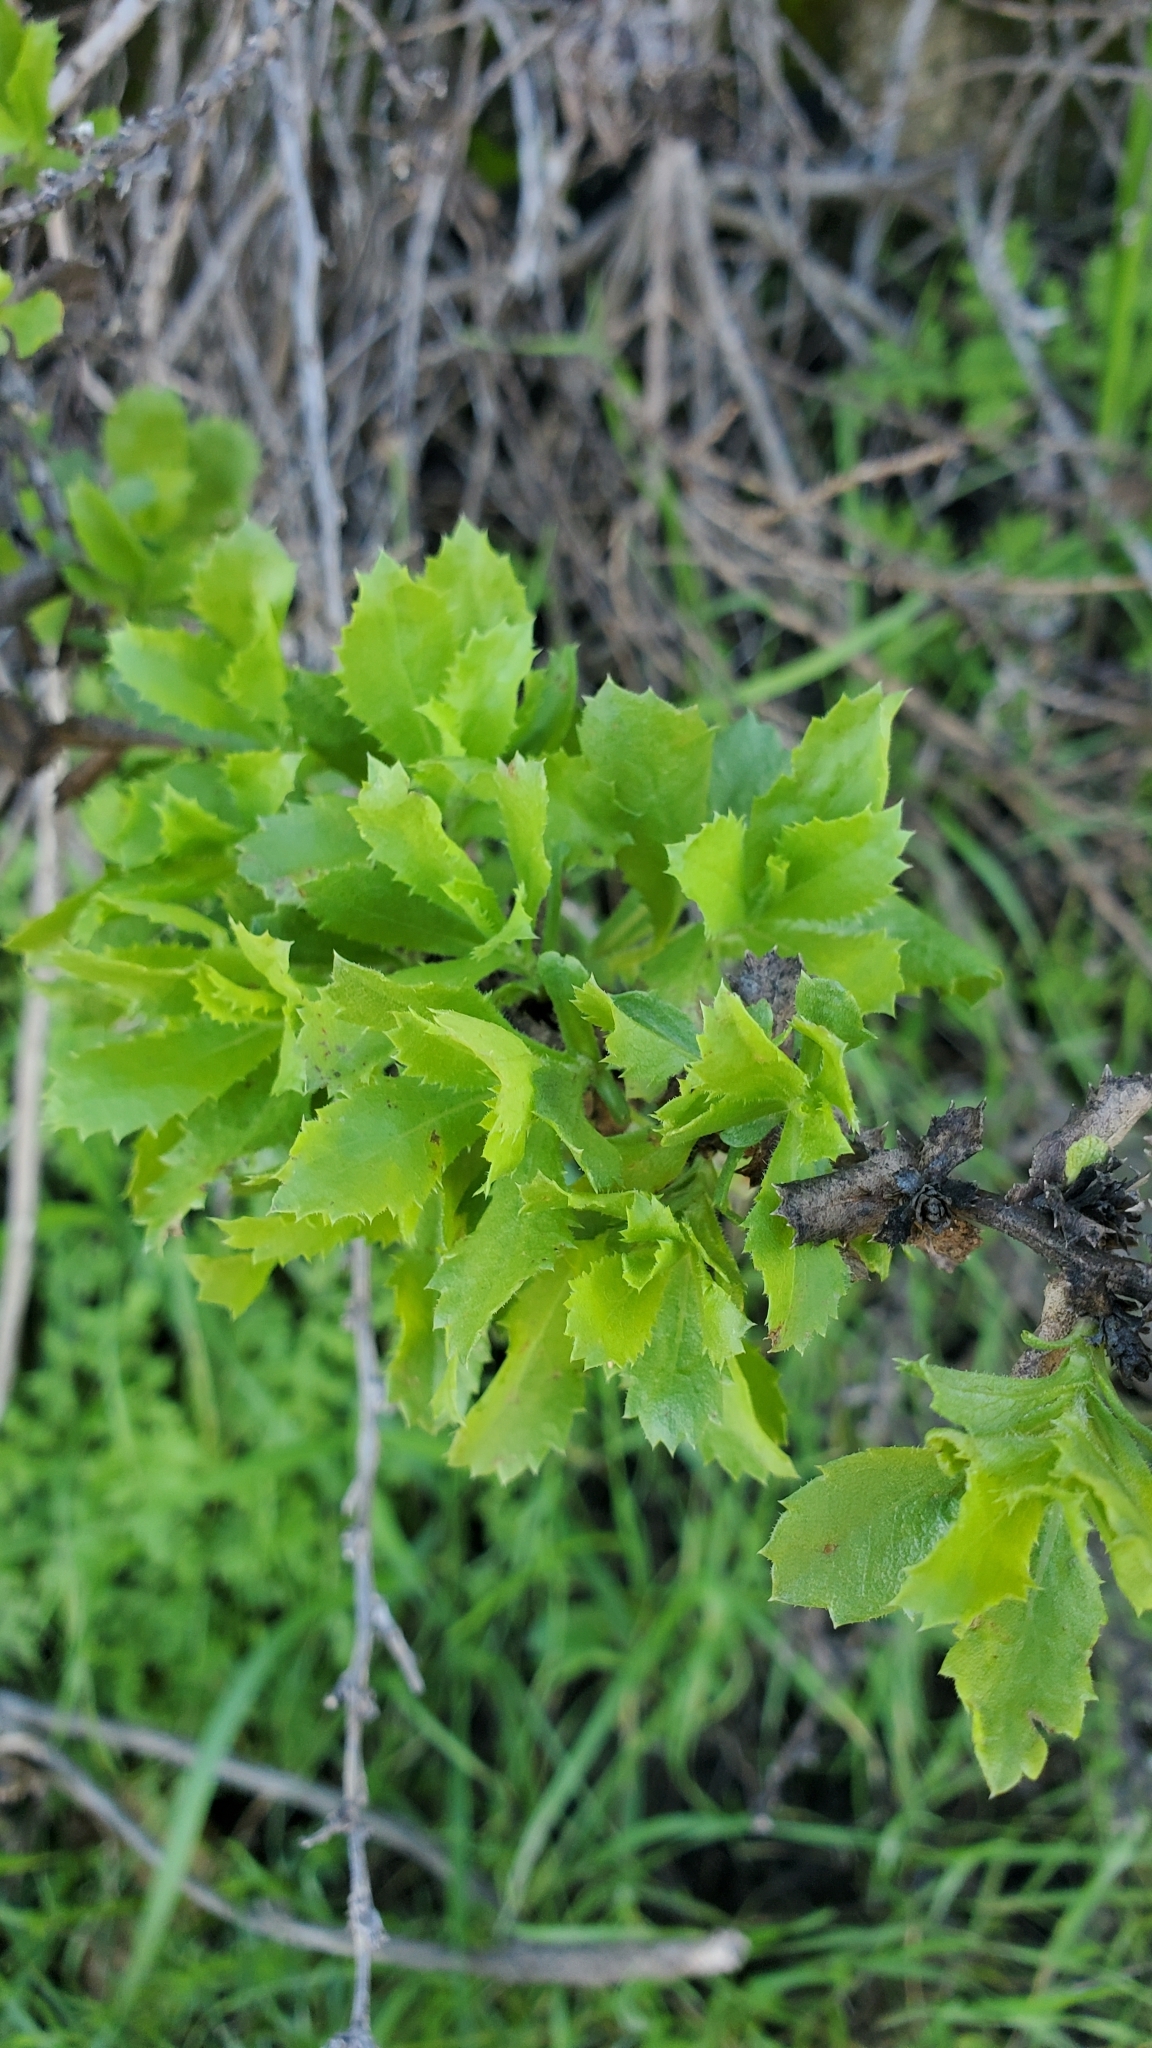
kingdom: Plantae
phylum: Tracheophyta
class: Magnoliopsida
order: Asterales
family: Asteraceae
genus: Hazardia
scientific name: Hazardia squarrosa
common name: Saw-tooth goldenbush
